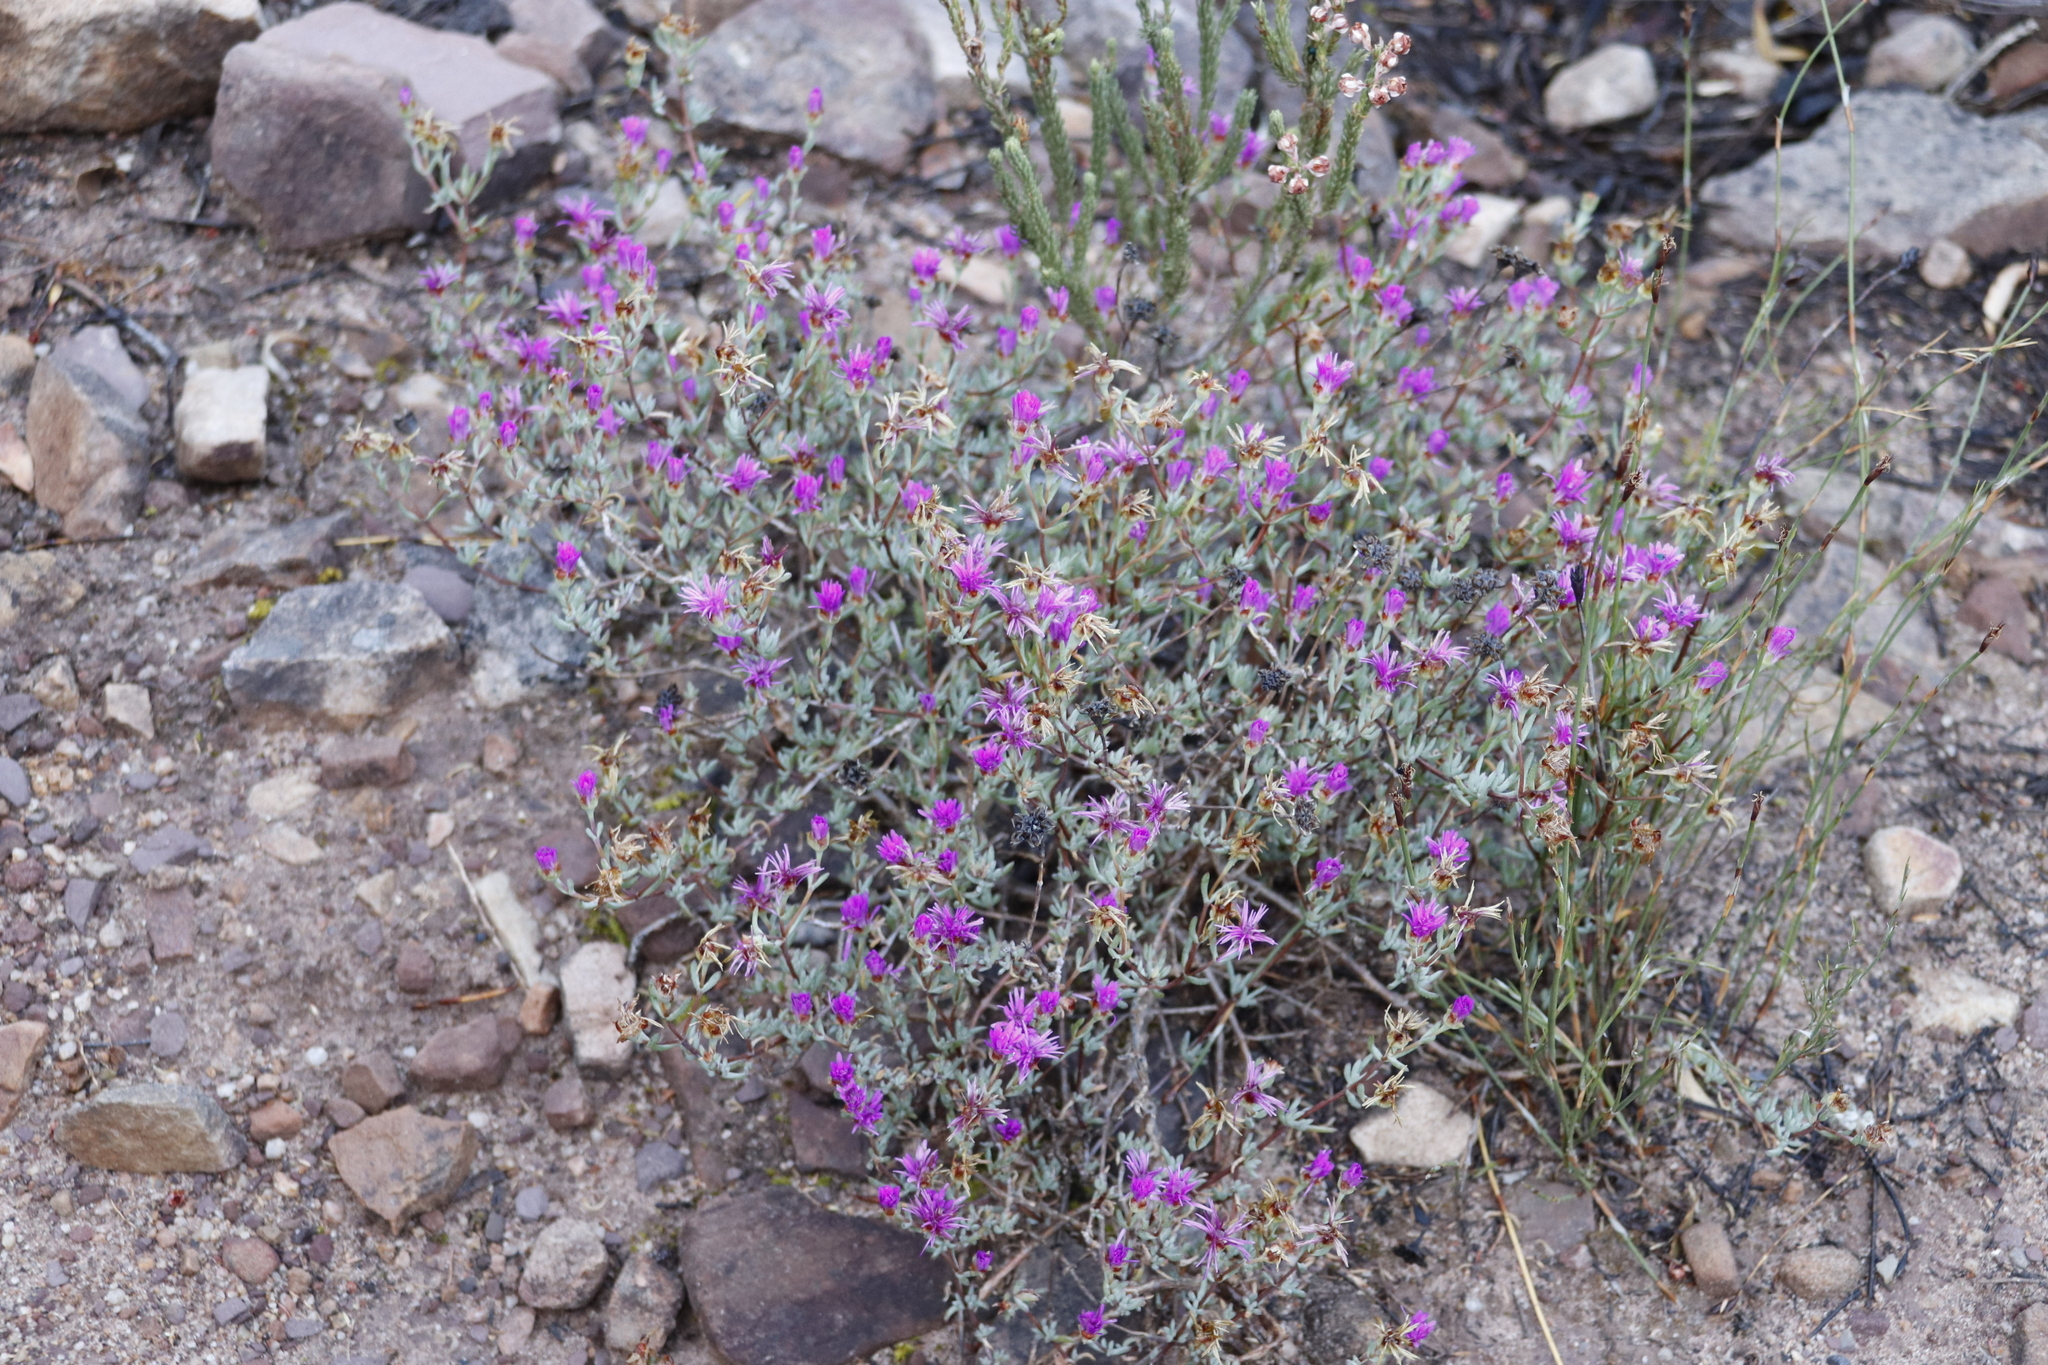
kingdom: Plantae
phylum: Tracheophyta
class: Magnoliopsida
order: Caryophyllales
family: Aizoaceae
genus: Lampranthus
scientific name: Lampranthus emarginatus
